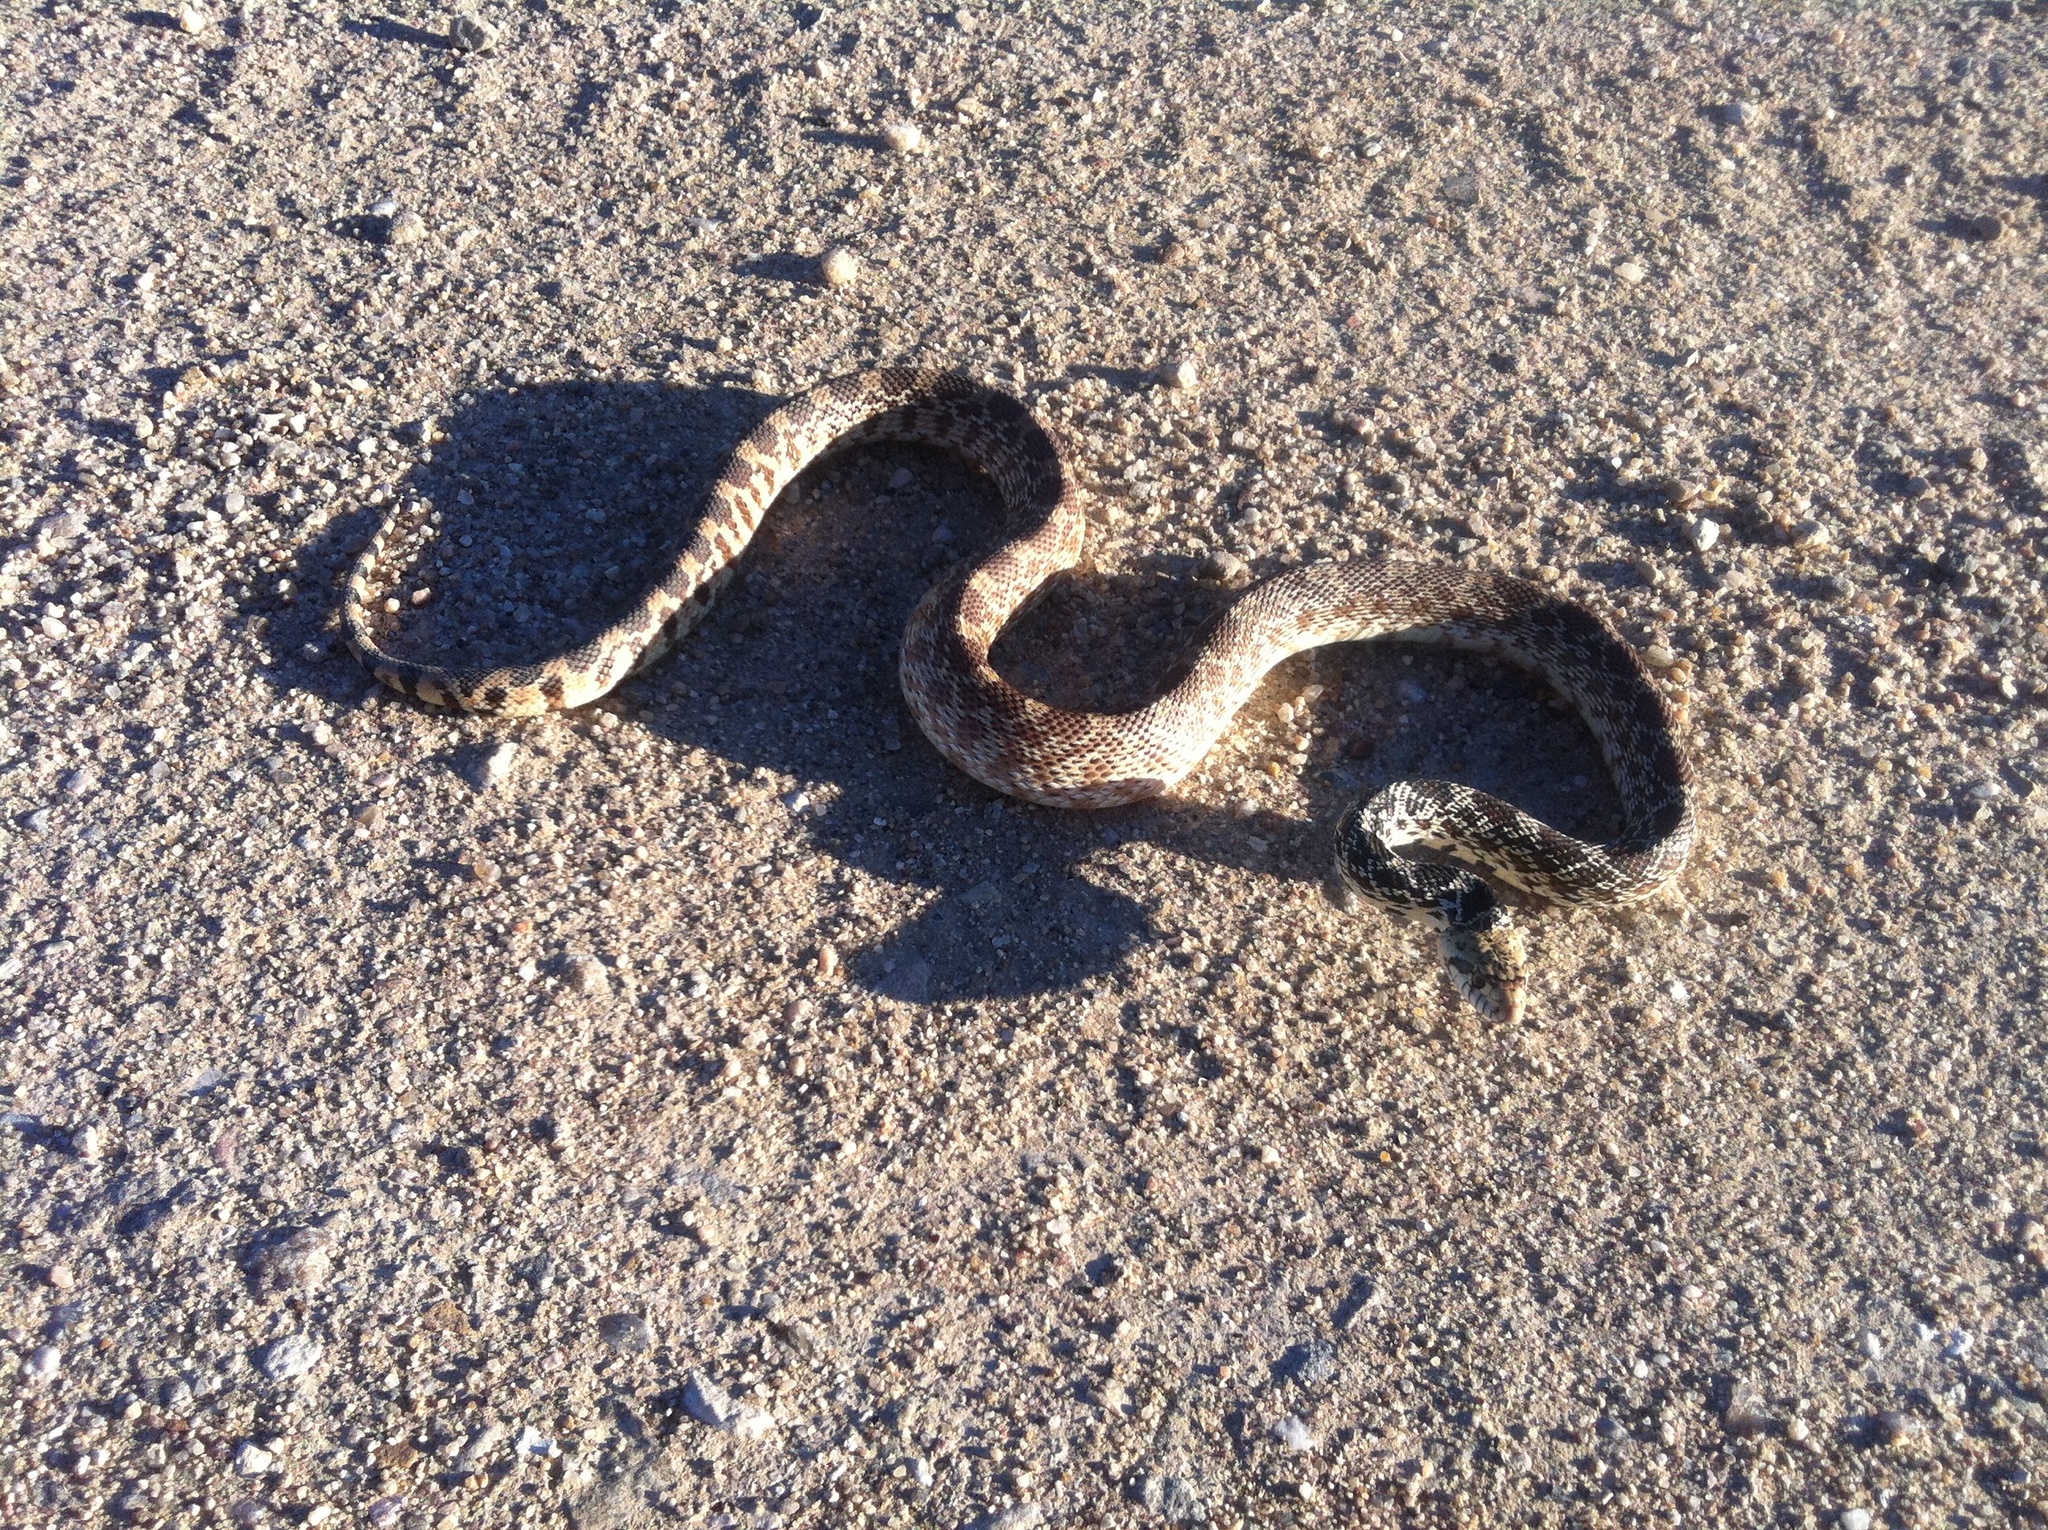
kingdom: Animalia
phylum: Chordata
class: Squamata
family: Colubridae
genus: Pituophis
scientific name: Pituophis catenifer
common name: Gopher snake
